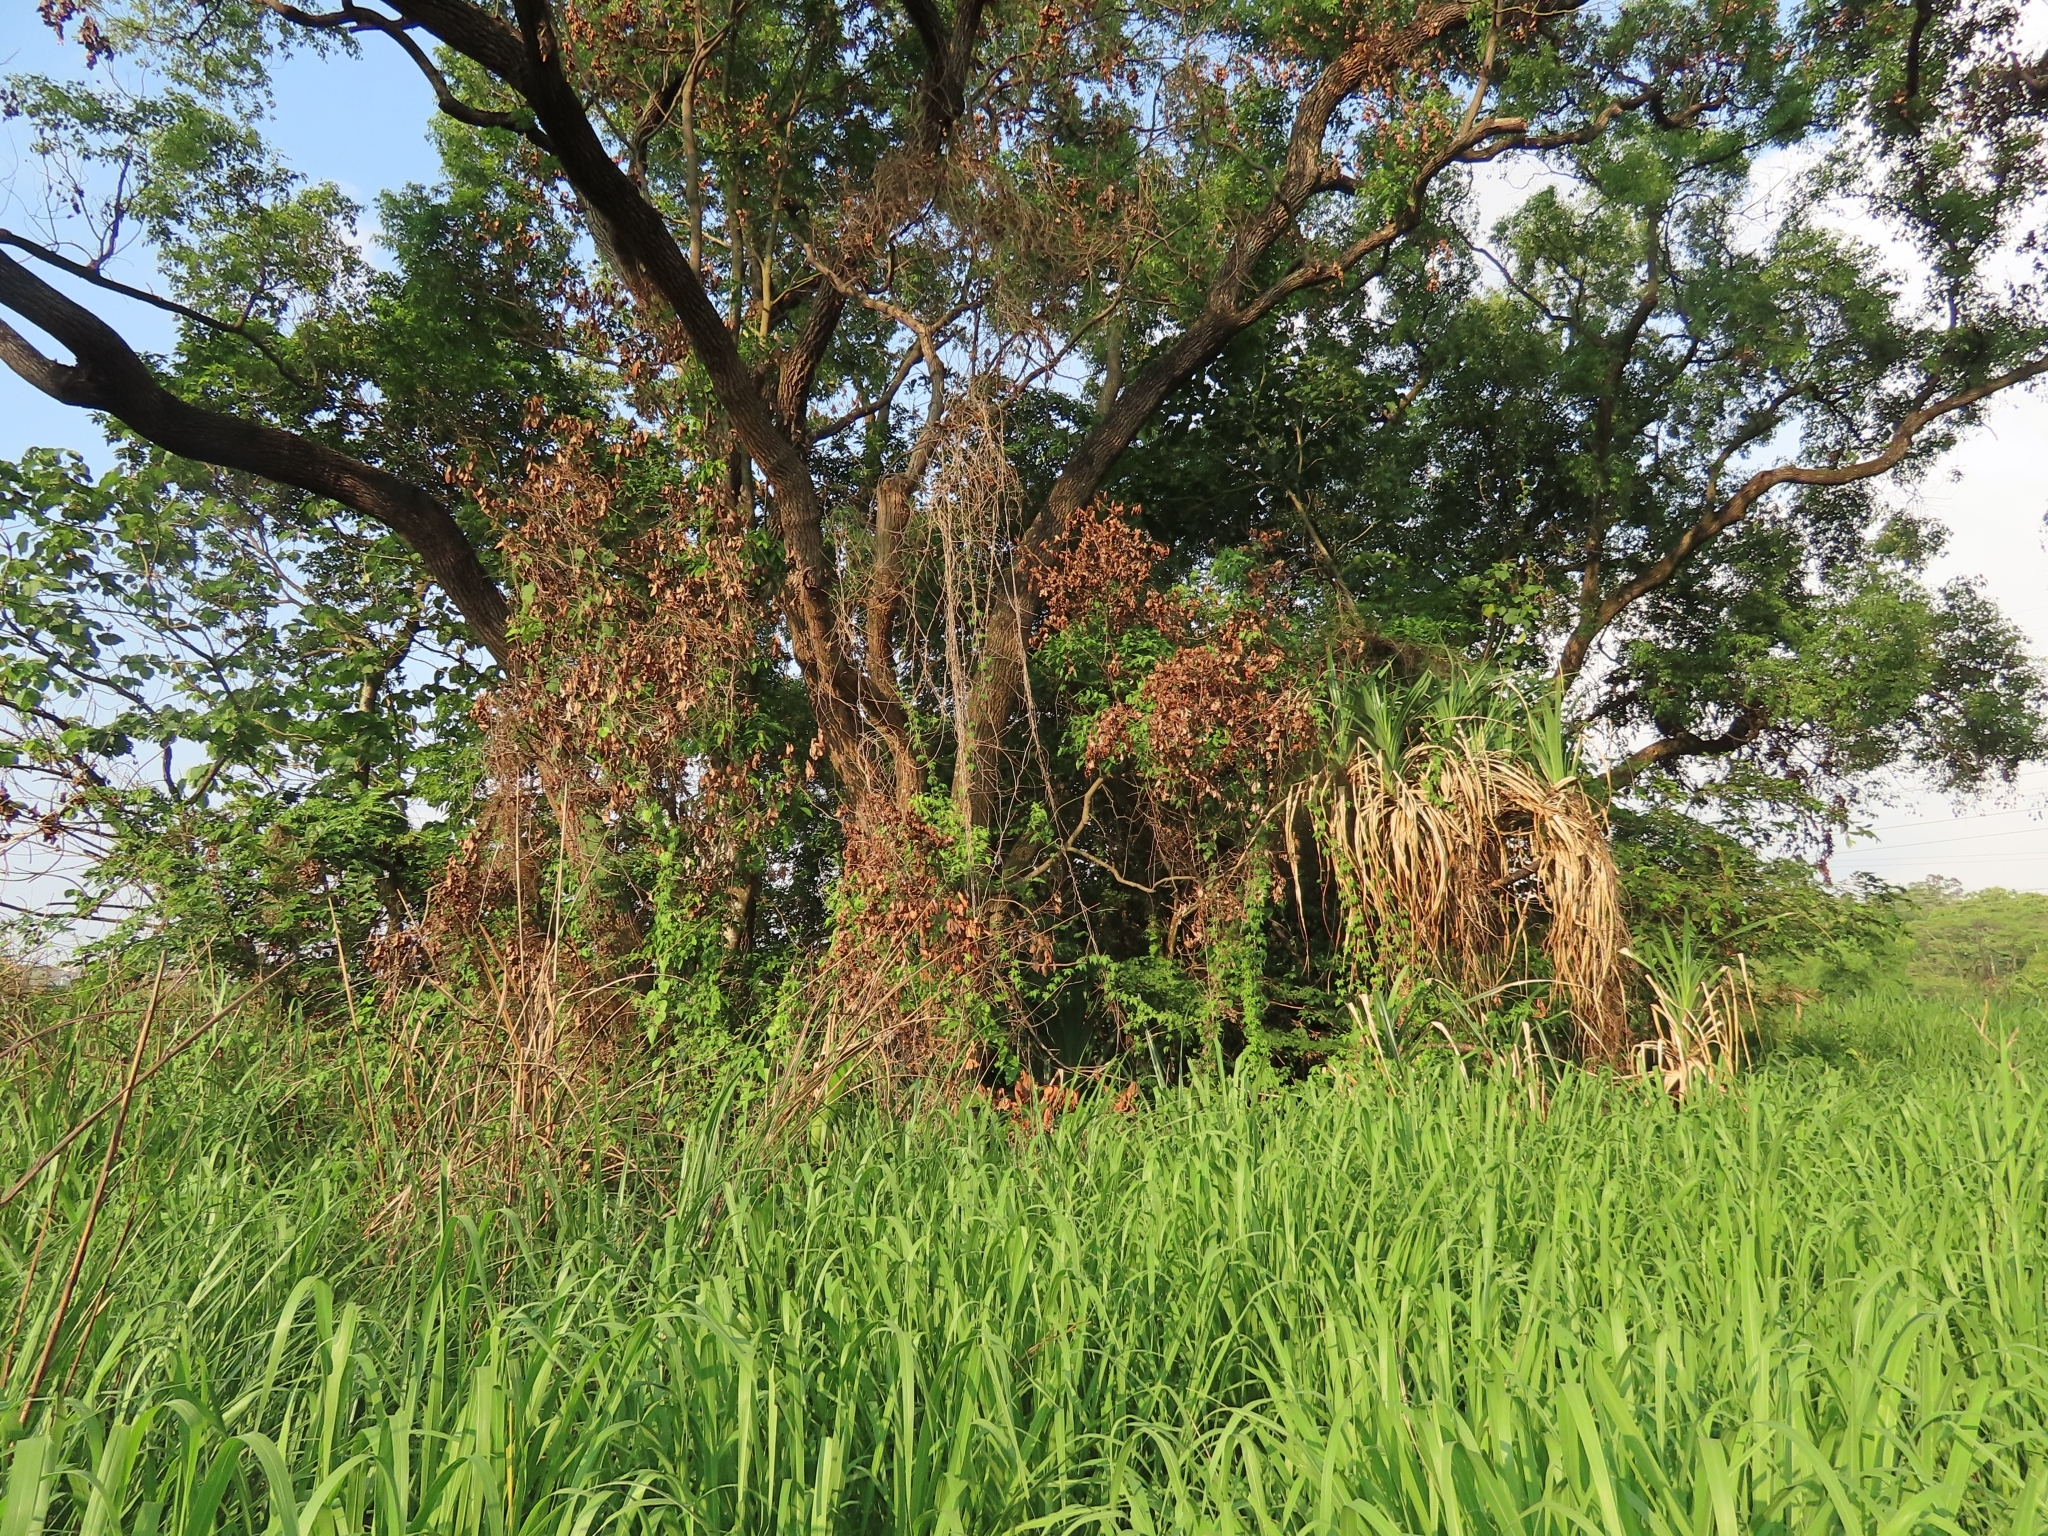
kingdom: Plantae
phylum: Tracheophyta
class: Liliopsida
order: Pandanales
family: Pandanaceae
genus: Pandanus
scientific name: Pandanus odorifer
